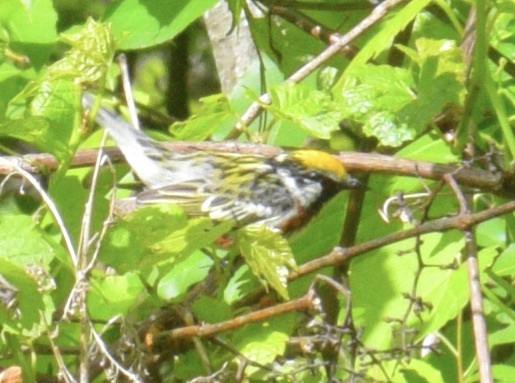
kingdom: Animalia
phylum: Chordata
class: Aves
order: Passeriformes
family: Parulidae
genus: Setophaga
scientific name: Setophaga pensylvanica
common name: Chestnut-sided warbler
